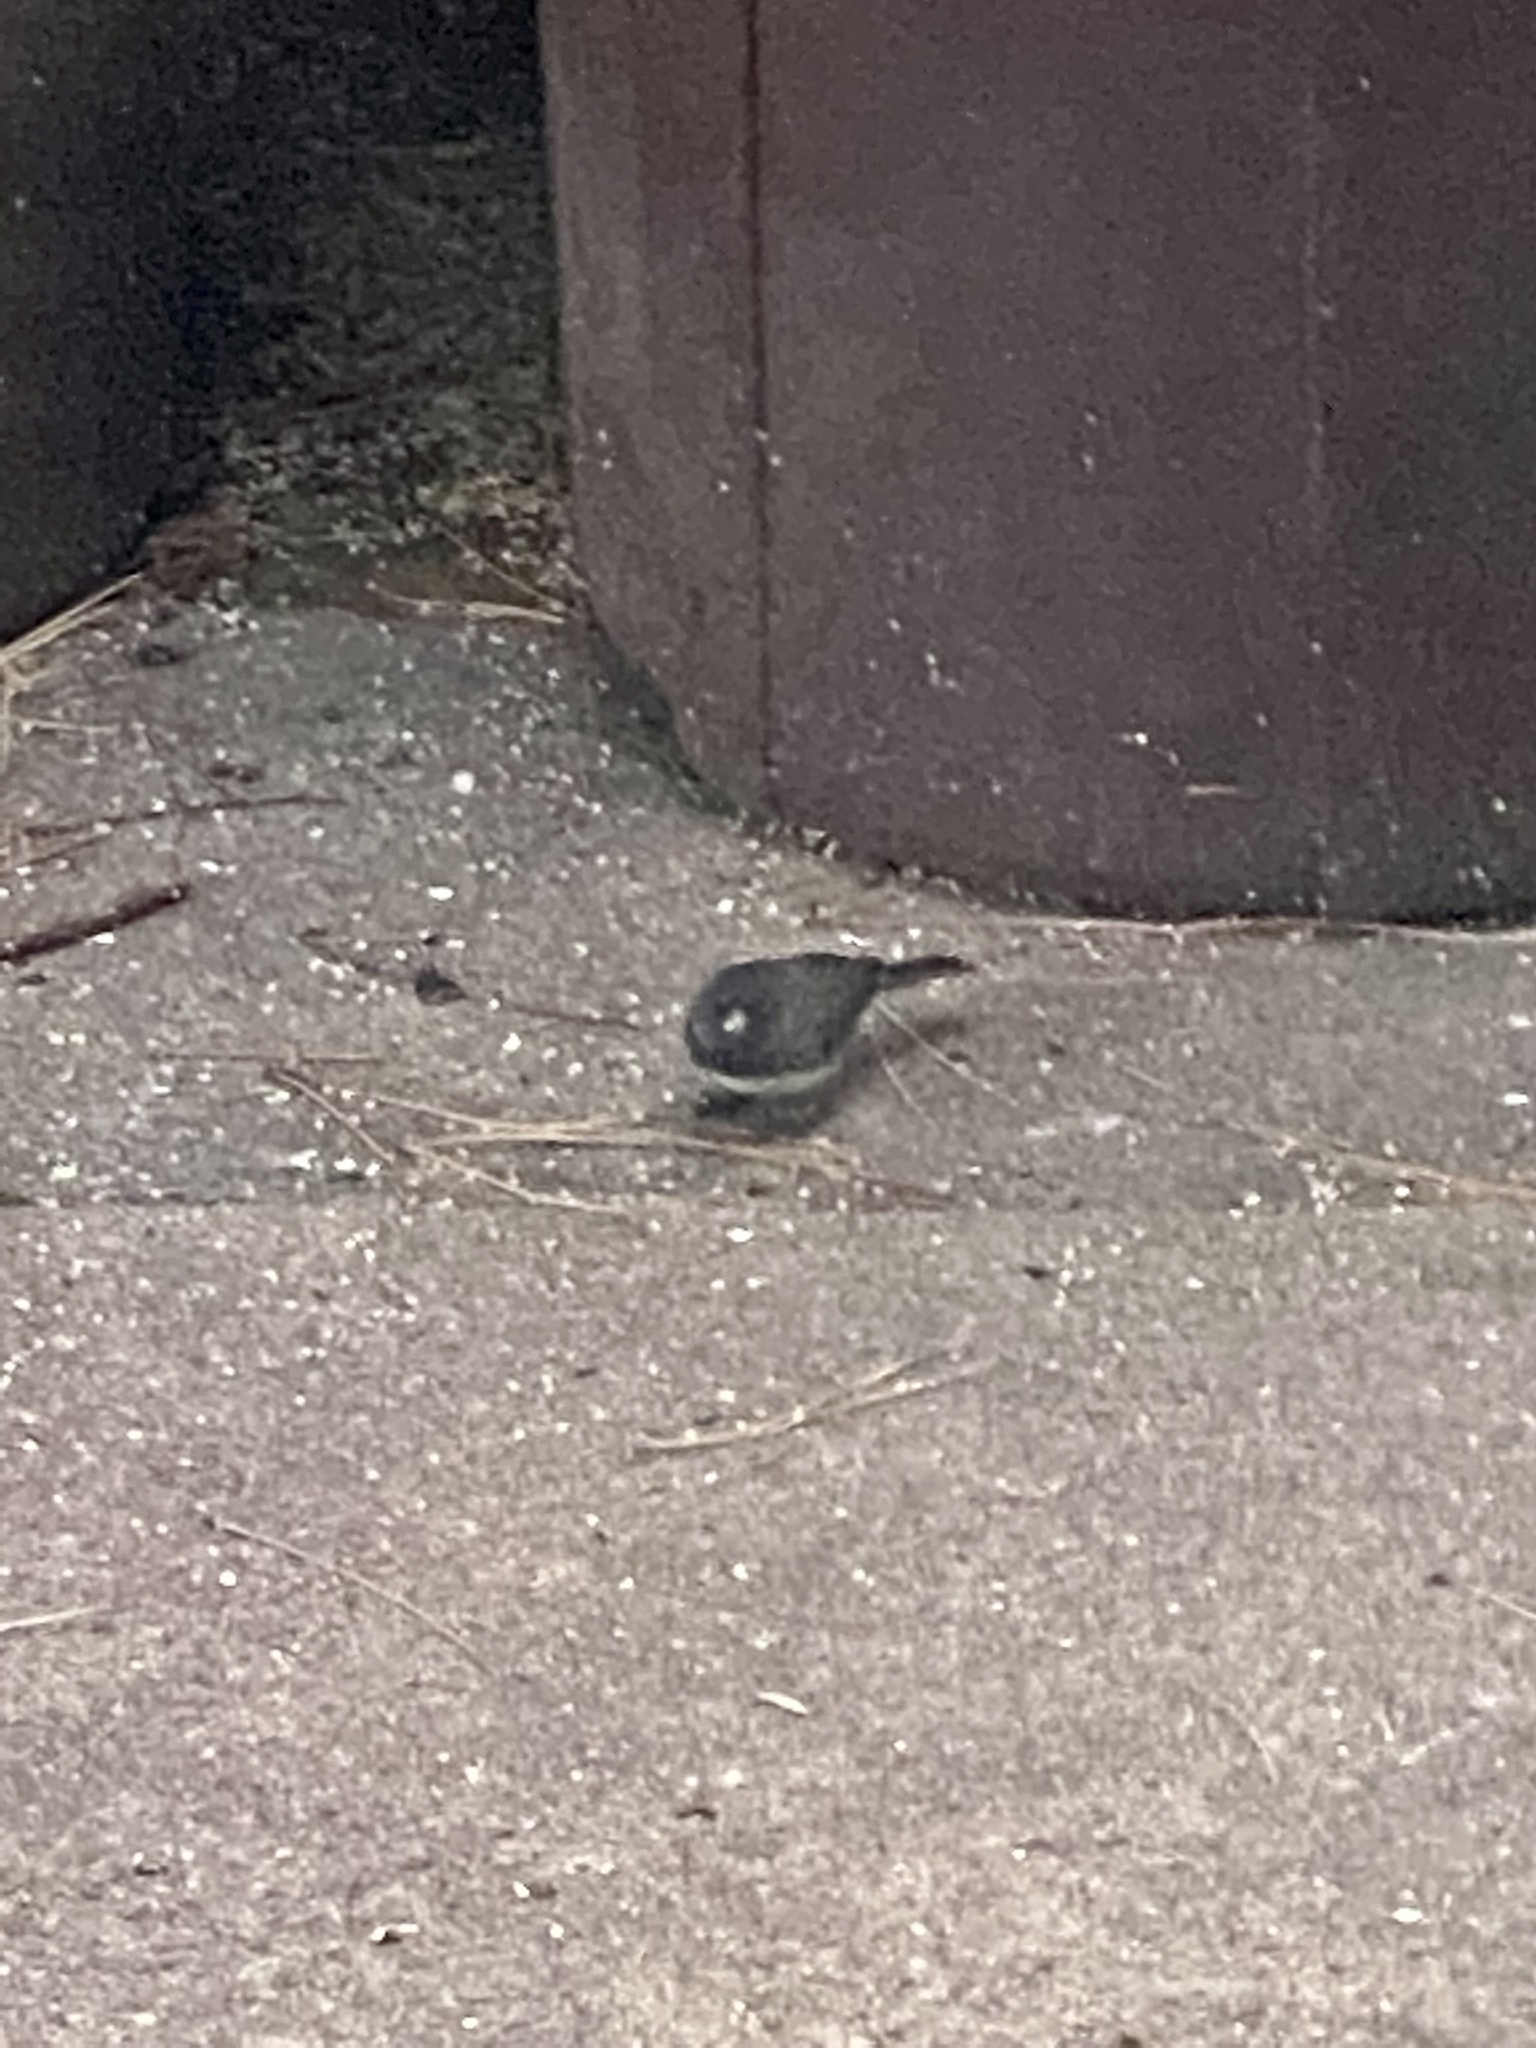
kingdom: Animalia
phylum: Chordata
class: Aves
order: Passeriformes
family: Passerellidae
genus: Junco
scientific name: Junco hyemalis
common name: Dark-eyed junco
